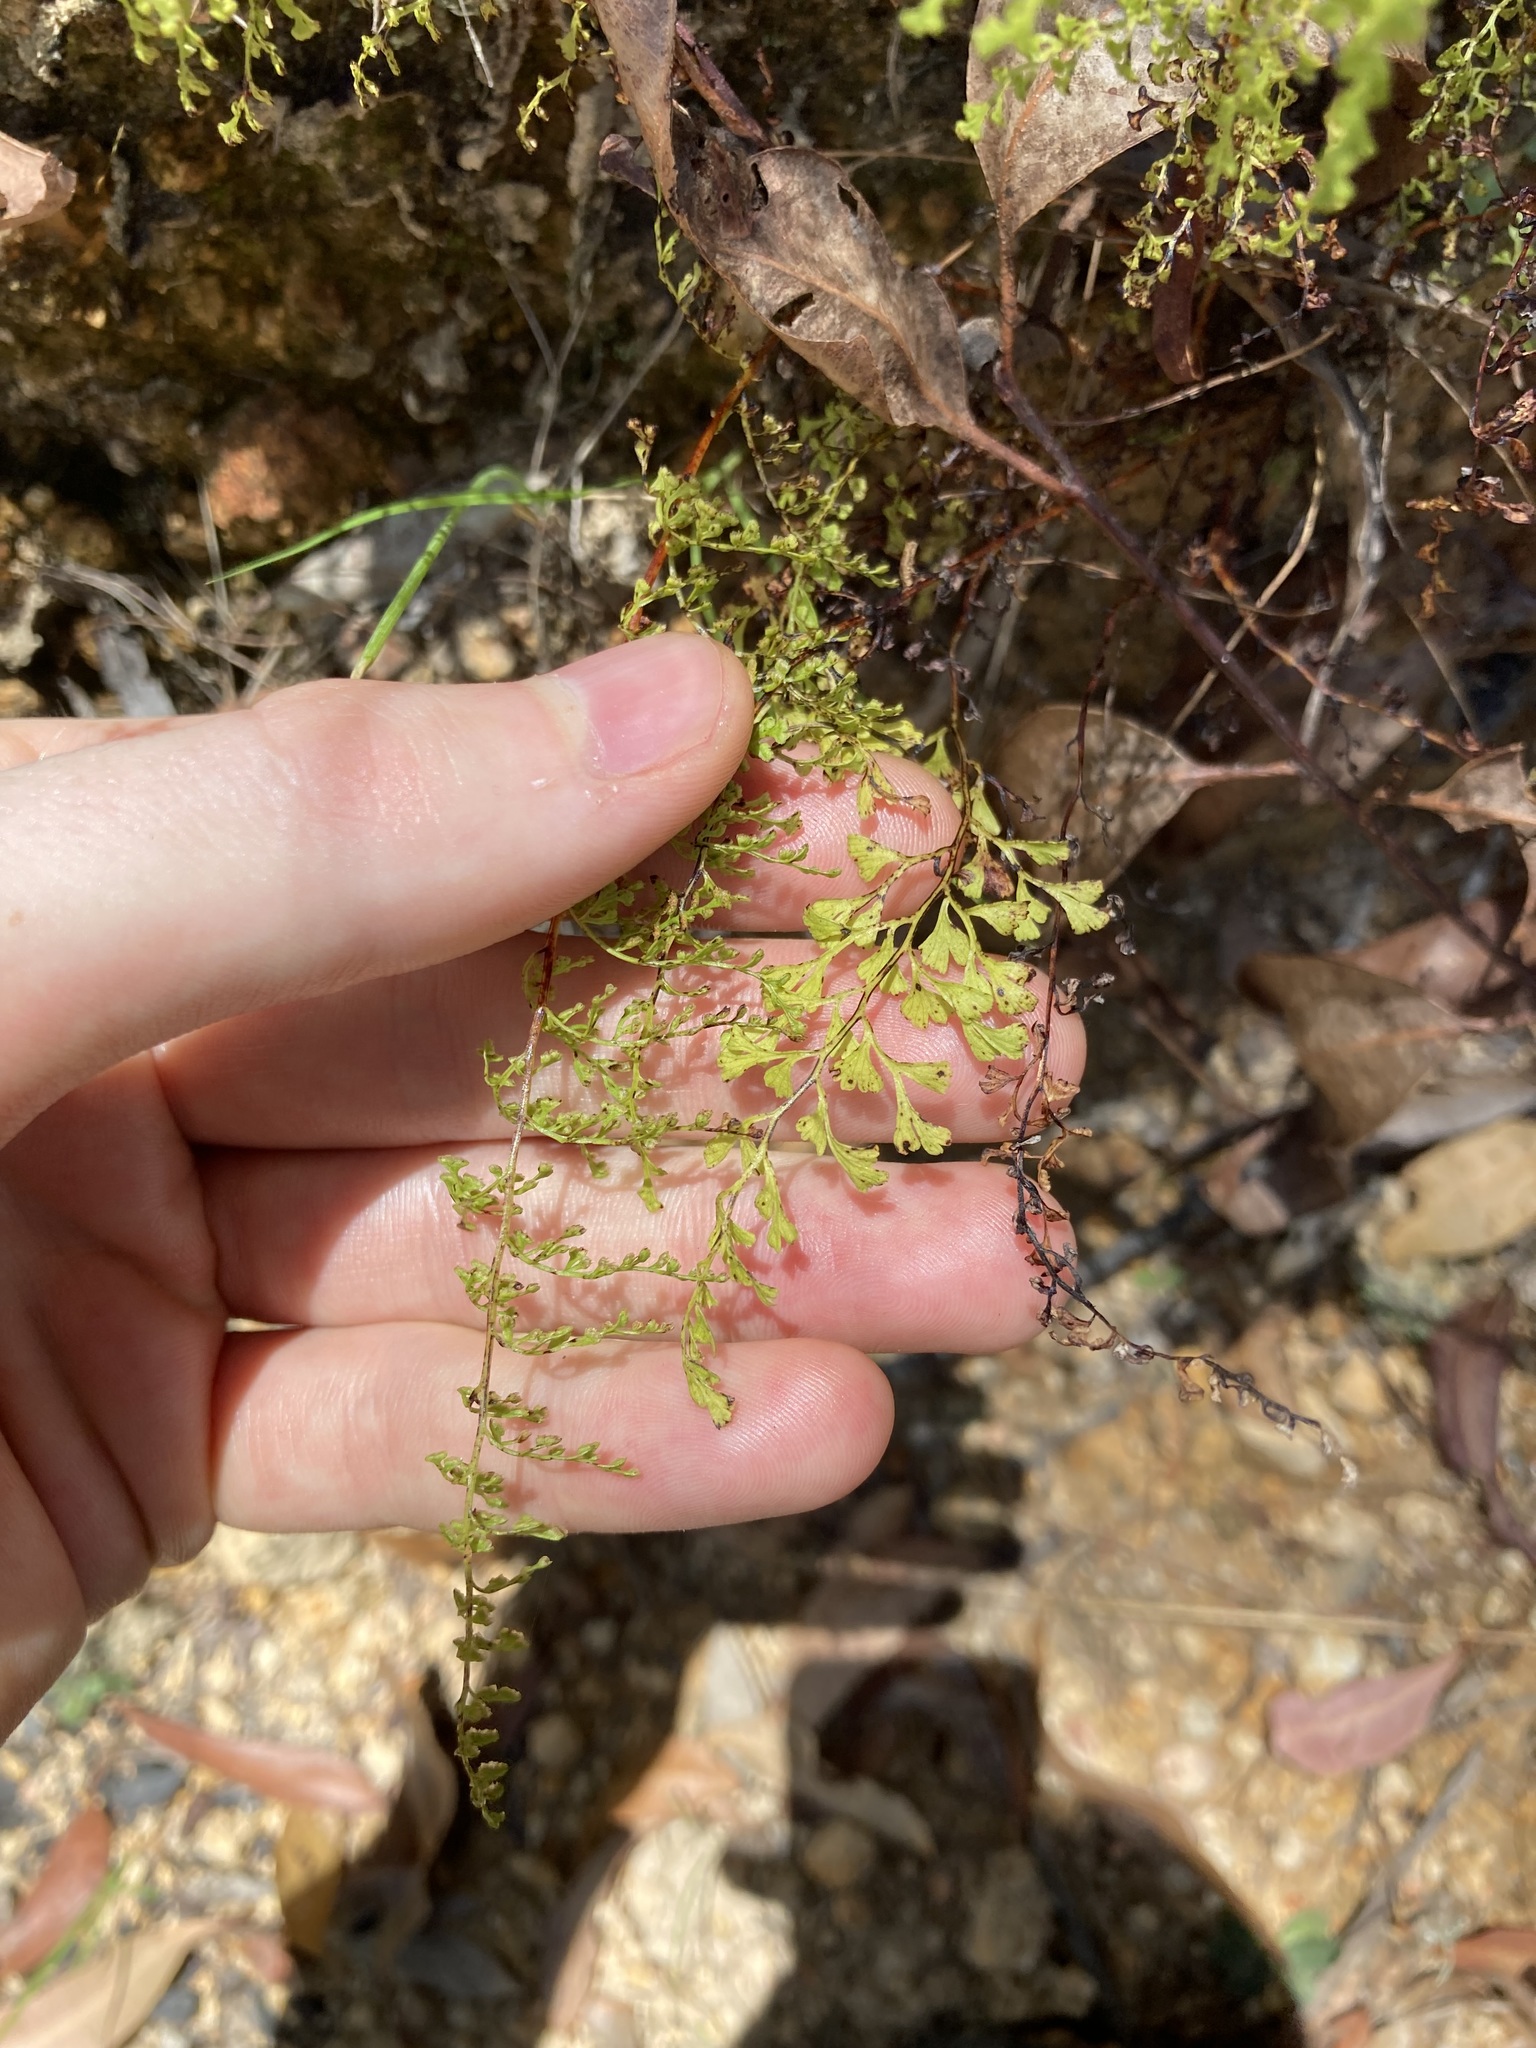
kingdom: Plantae
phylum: Tracheophyta
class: Polypodiopsida
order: Polypodiales
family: Lindsaeaceae
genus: Lindsaea
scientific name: Lindsaea microphylla
